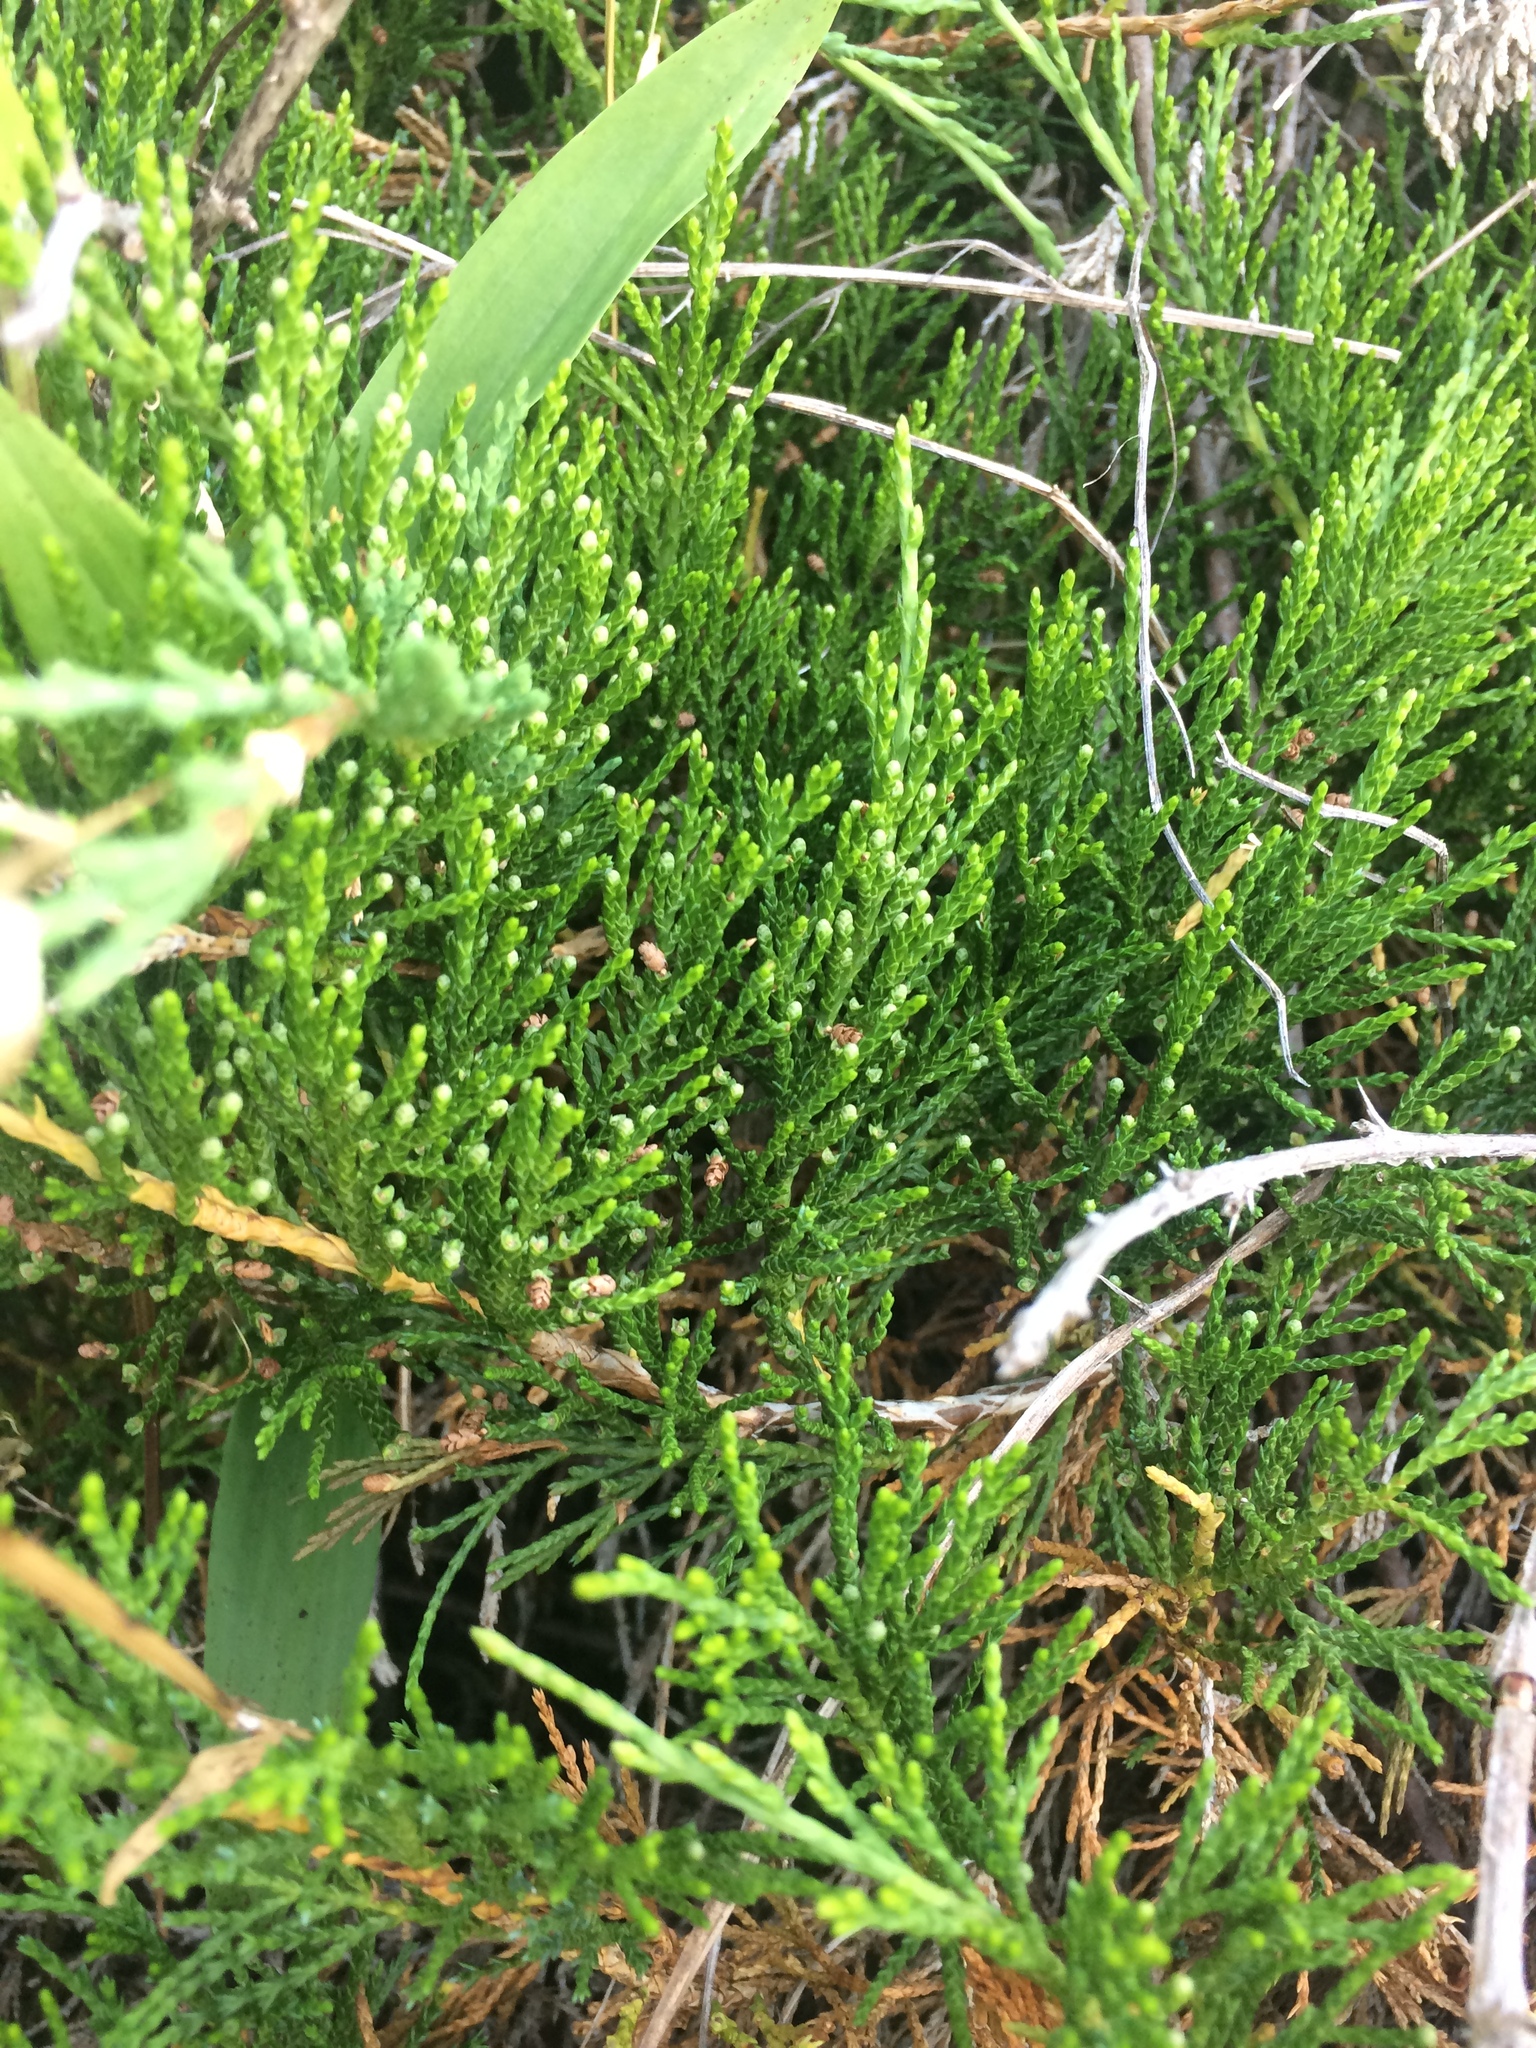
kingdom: Plantae
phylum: Tracheophyta
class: Pinopsida
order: Pinales
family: Cupressaceae
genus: Juniperus
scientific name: Juniperus horizontalis
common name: Creeping juniper
